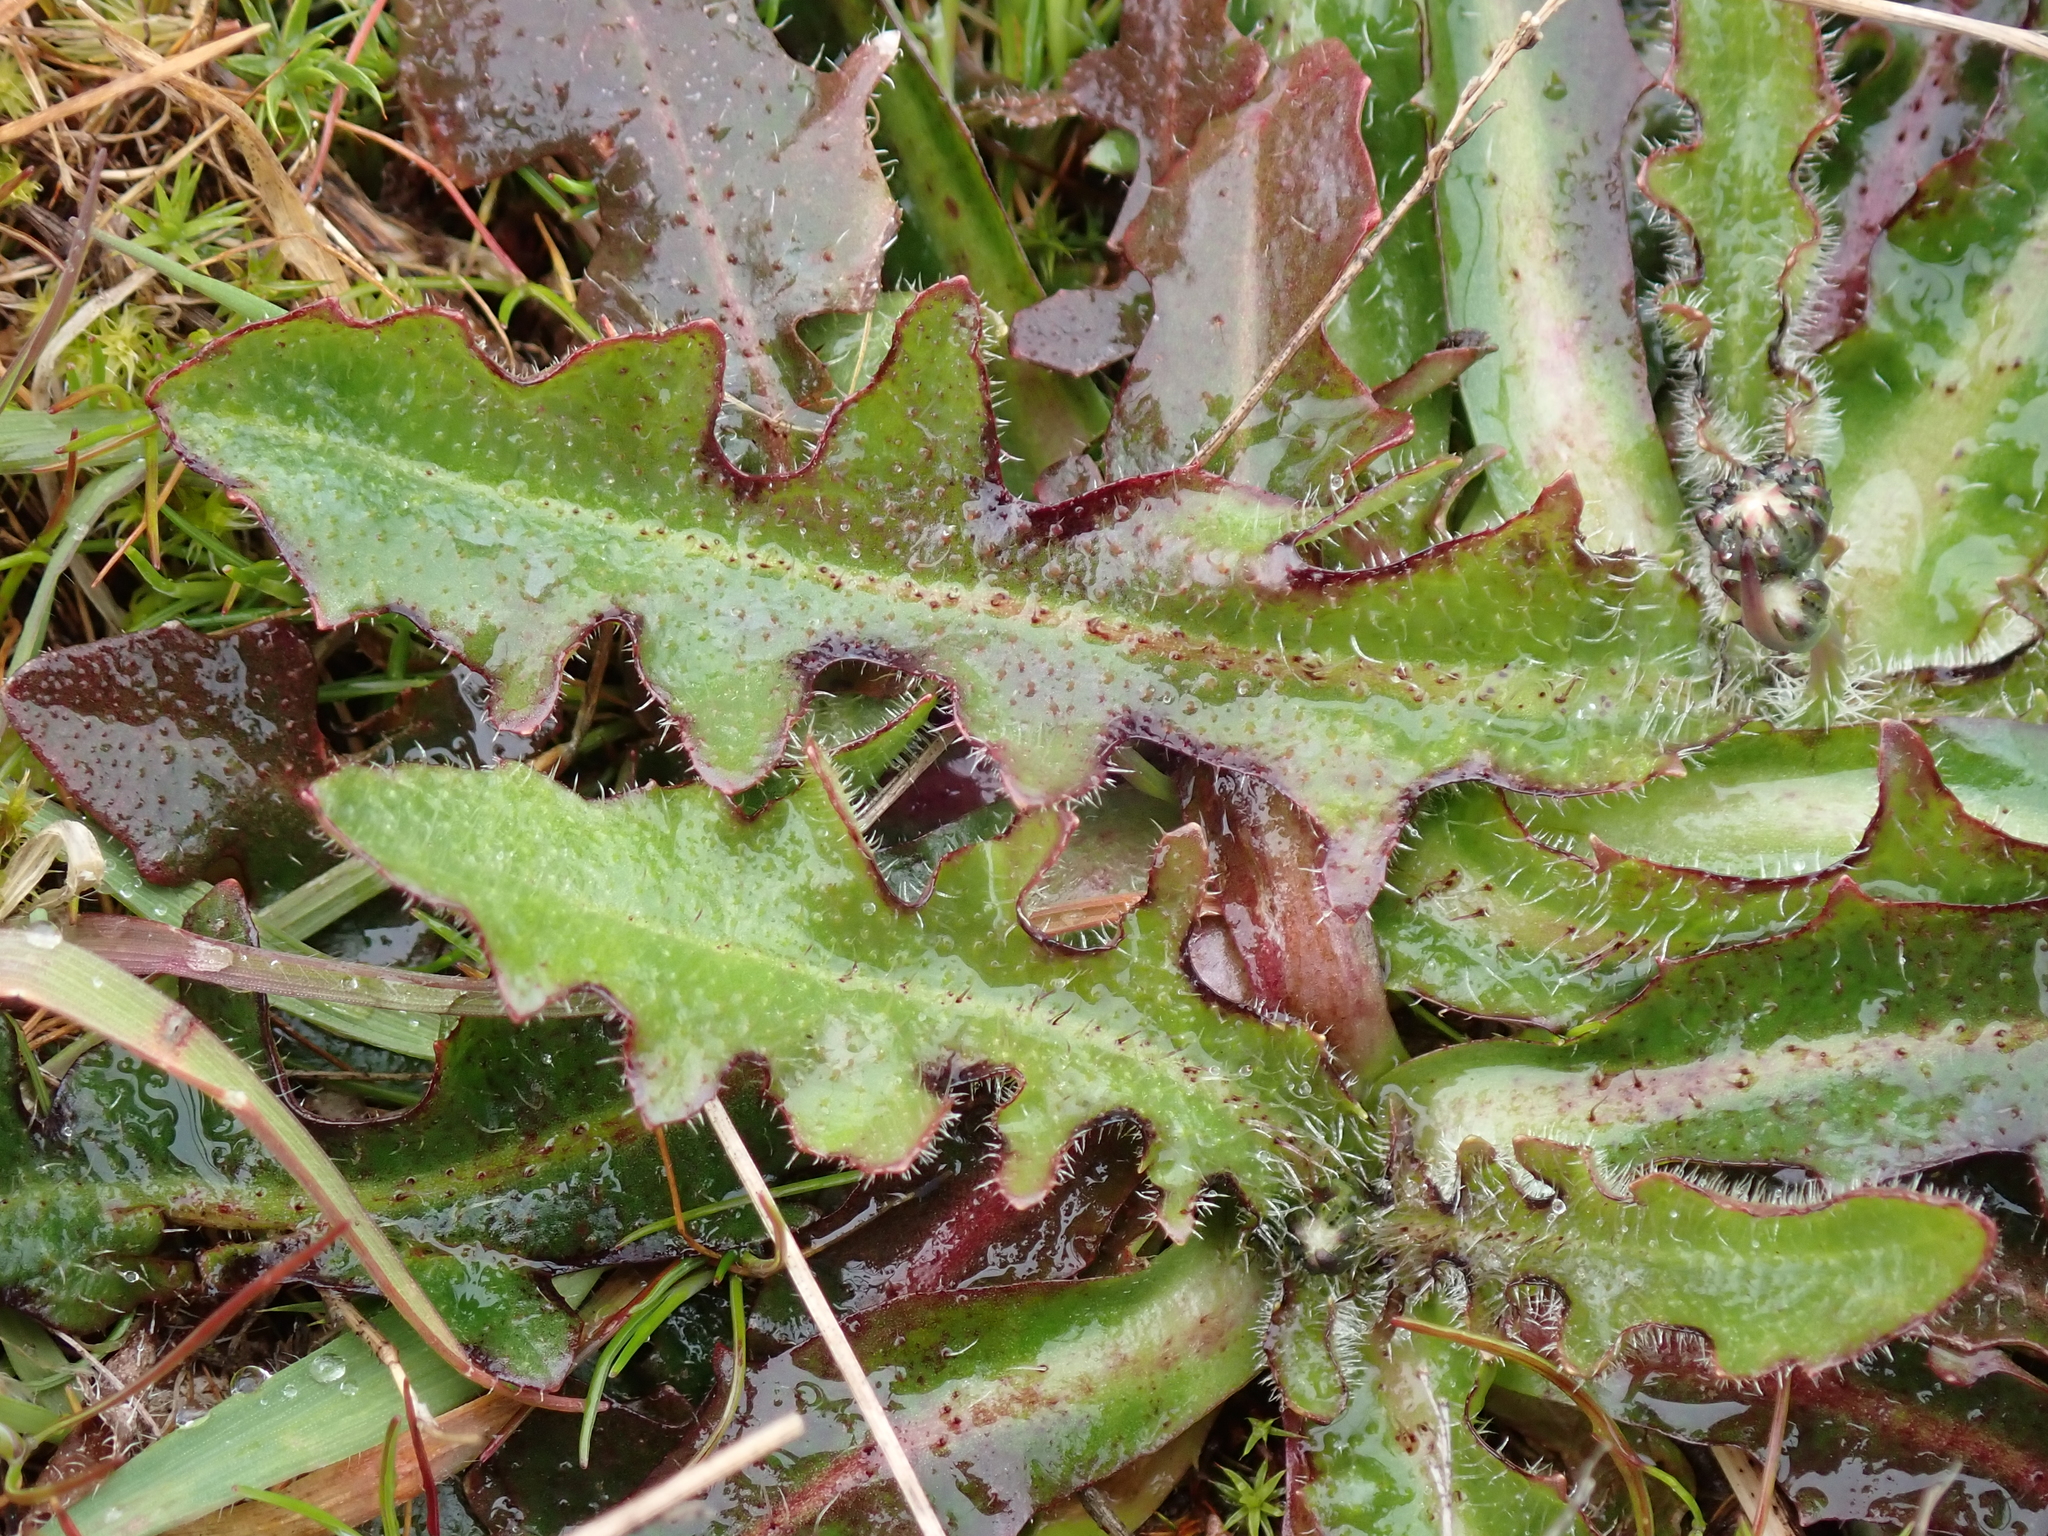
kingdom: Plantae
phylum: Tracheophyta
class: Magnoliopsida
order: Asterales
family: Asteraceae
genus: Hypochaeris
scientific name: Hypochaeris radicata
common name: Flatweed
